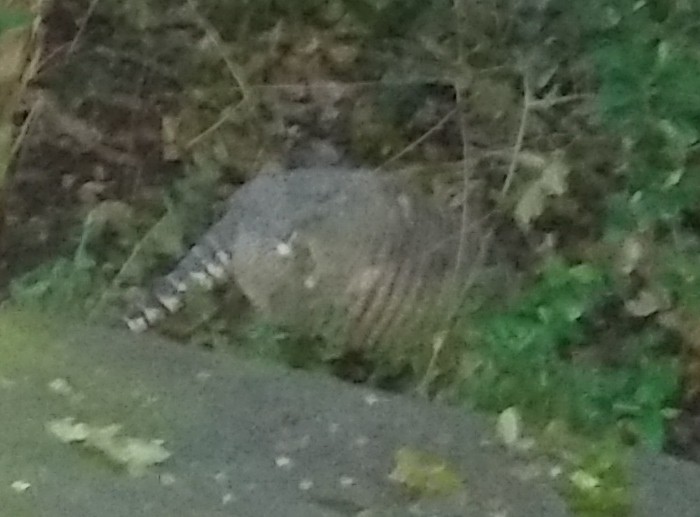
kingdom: Animalia
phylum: Chordata
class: Mammalia
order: Cingulata
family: Dasypodidae
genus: Dasypus
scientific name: Dasypus novemcinctus
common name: Nine-banded armadillo
